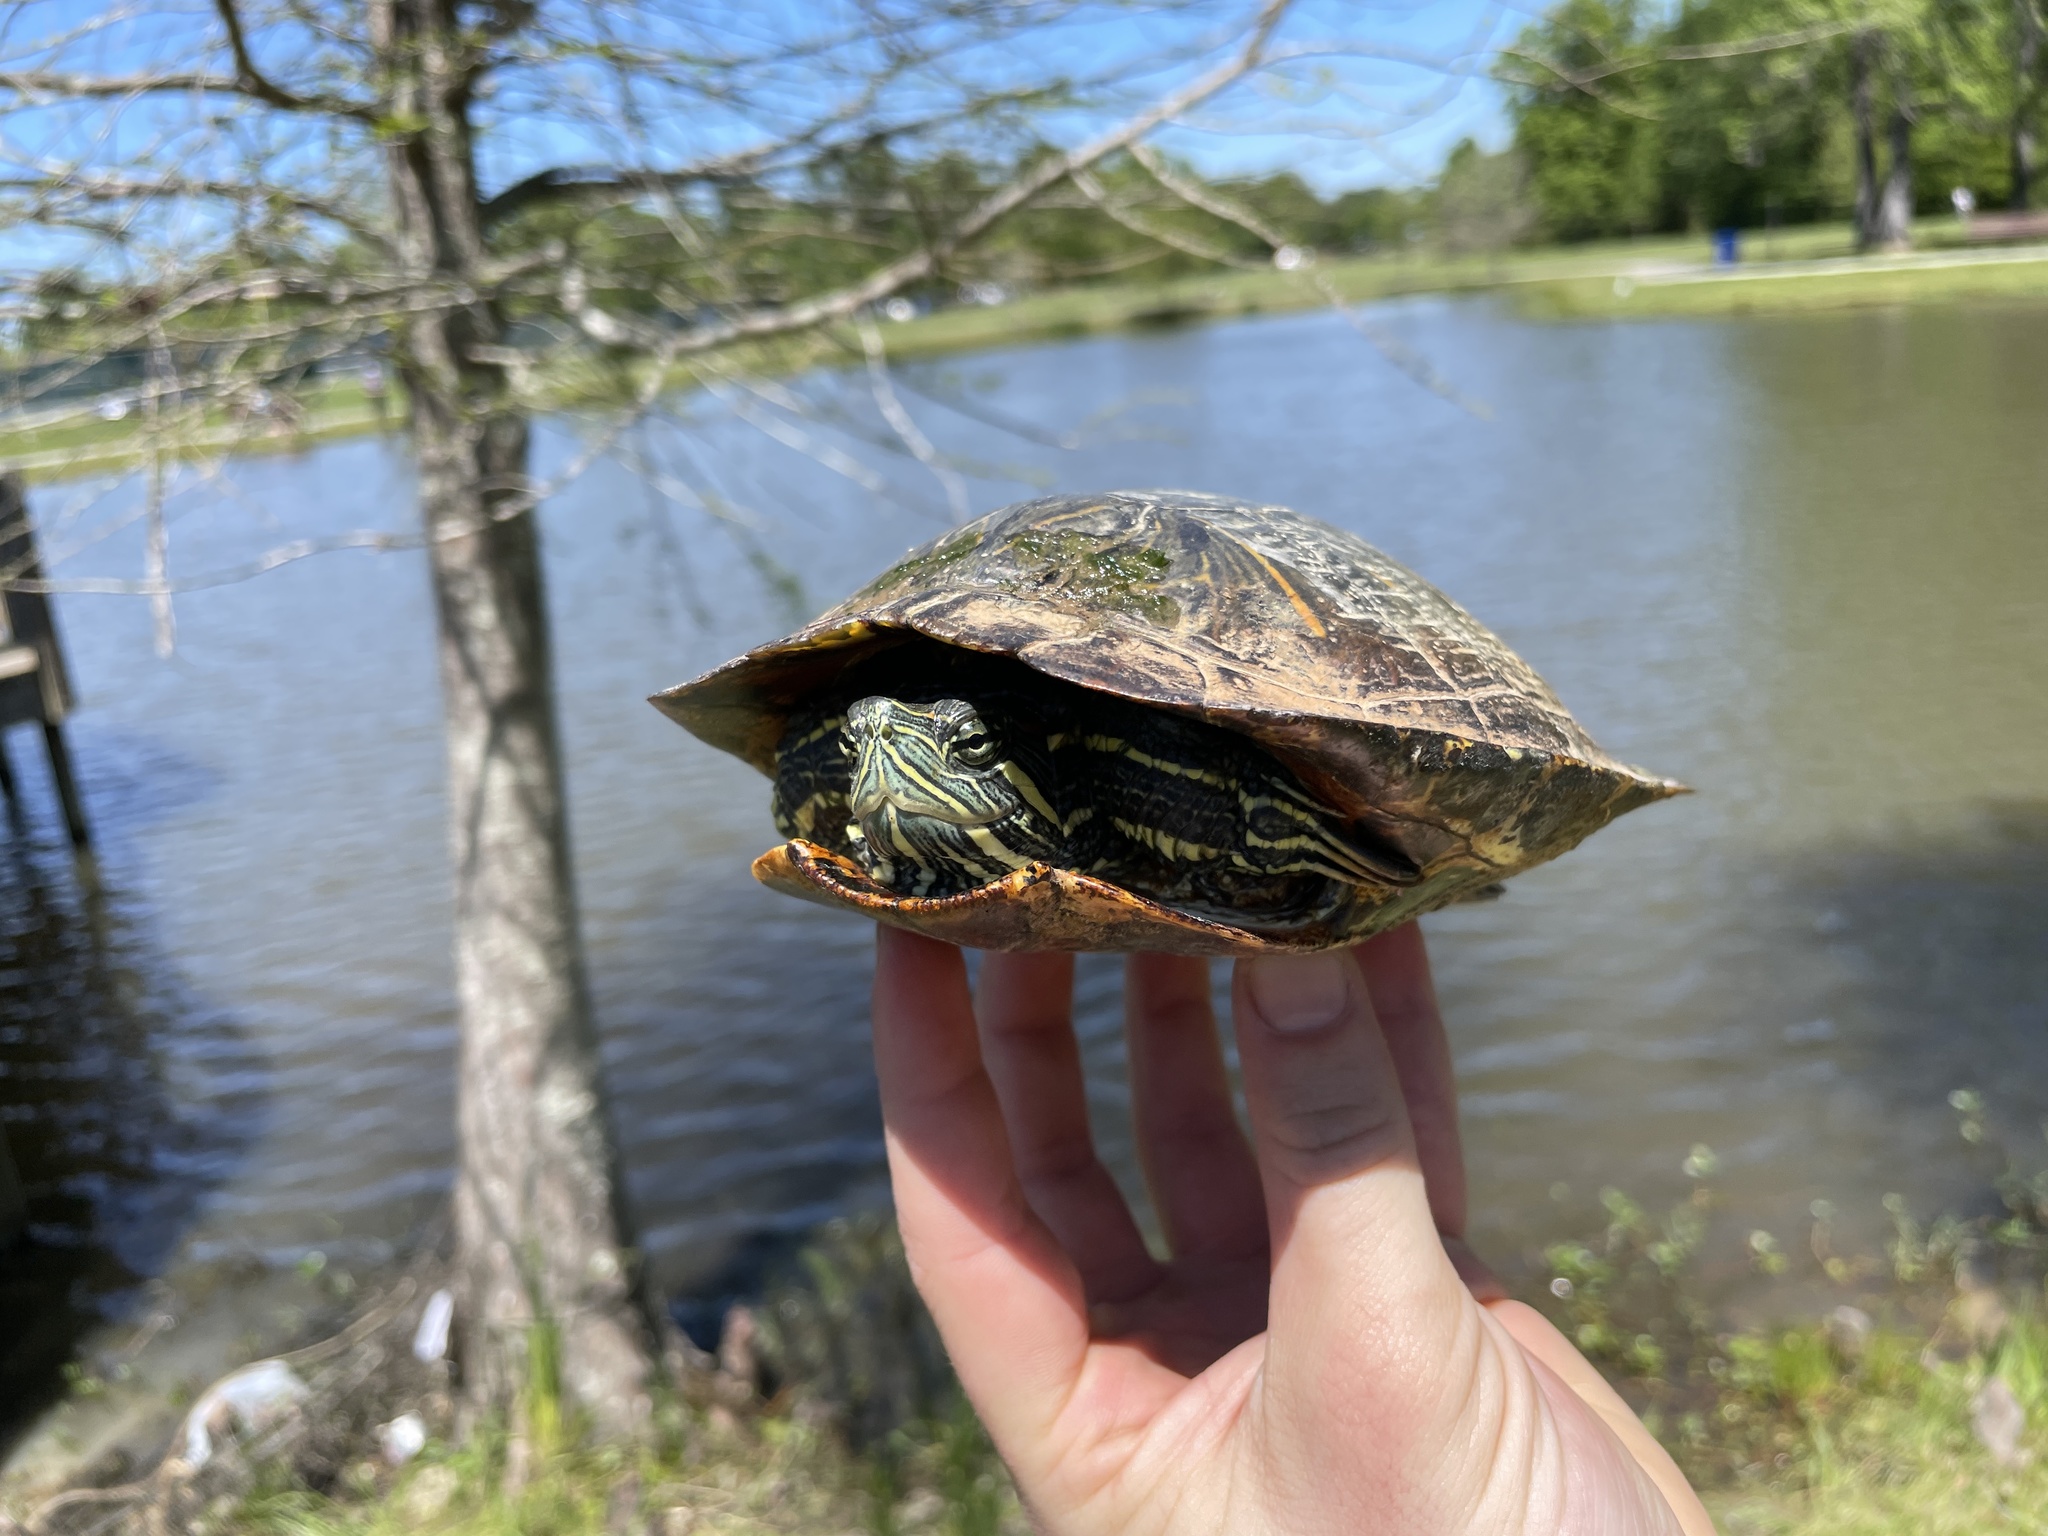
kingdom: Animalia
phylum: Chordata
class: Testudines
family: Emydidae
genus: Trachemys
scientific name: Trachemys scripta
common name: Slider
